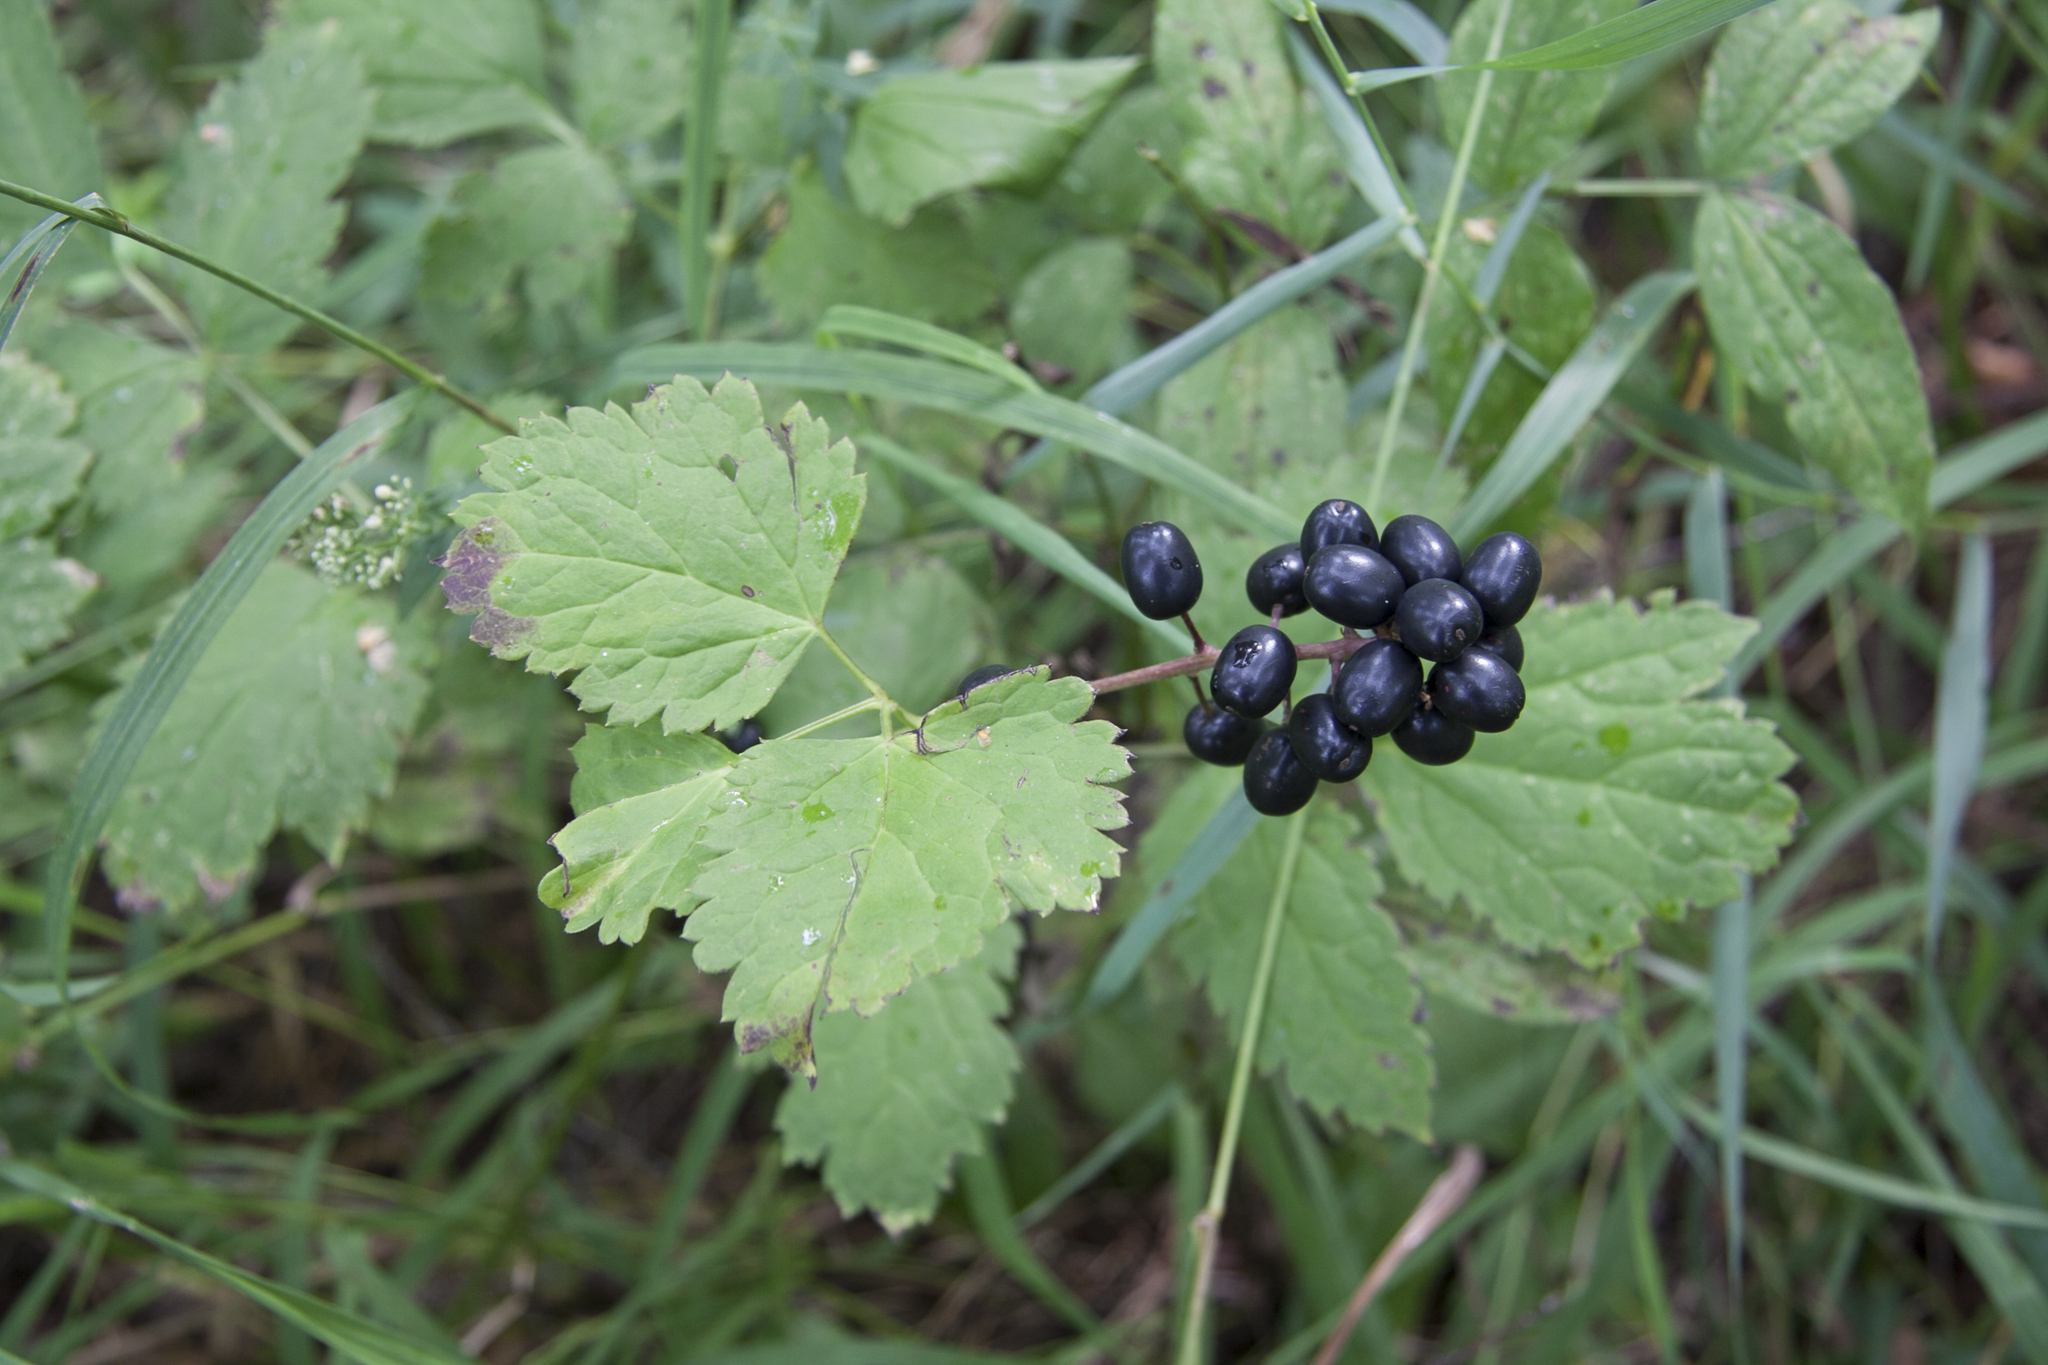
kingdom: Plantae
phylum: Tracheophyta
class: Magnoliopsida
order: Ranunculales
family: Ranunculaceae
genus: Actaea
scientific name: Actaea spicata
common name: Baneberry
